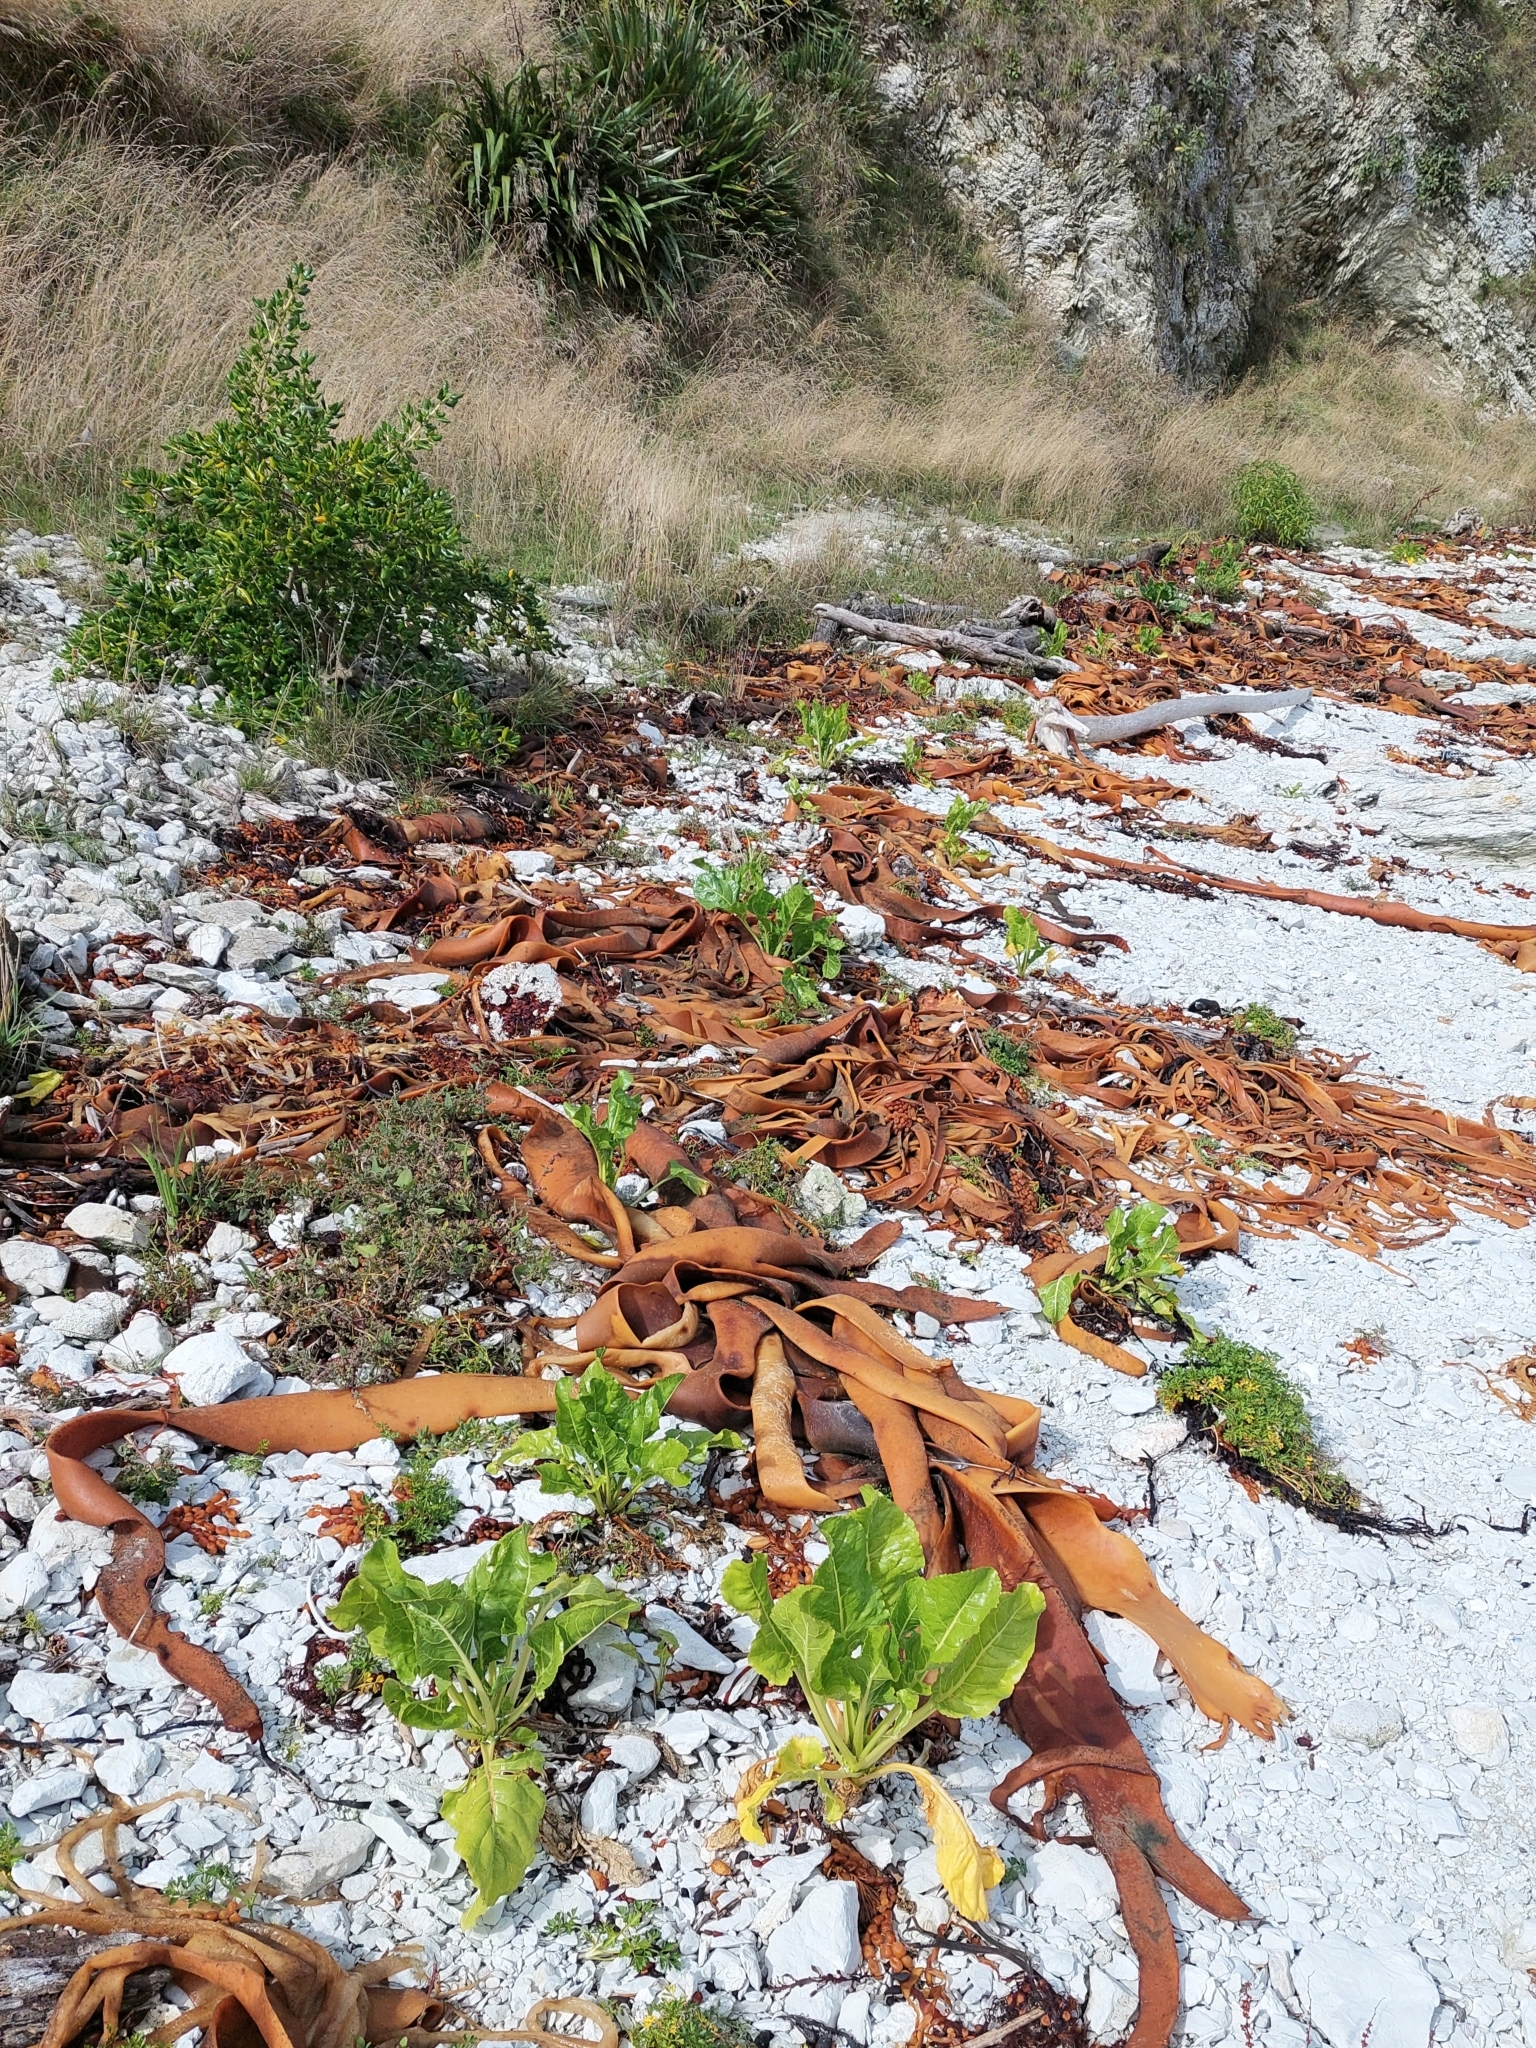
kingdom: Plantae
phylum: Tracheophyta
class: Magnoliopsida
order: Caryophyllales
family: Amaranthaceae
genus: Beta
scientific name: Beta vulgaris
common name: Beet
